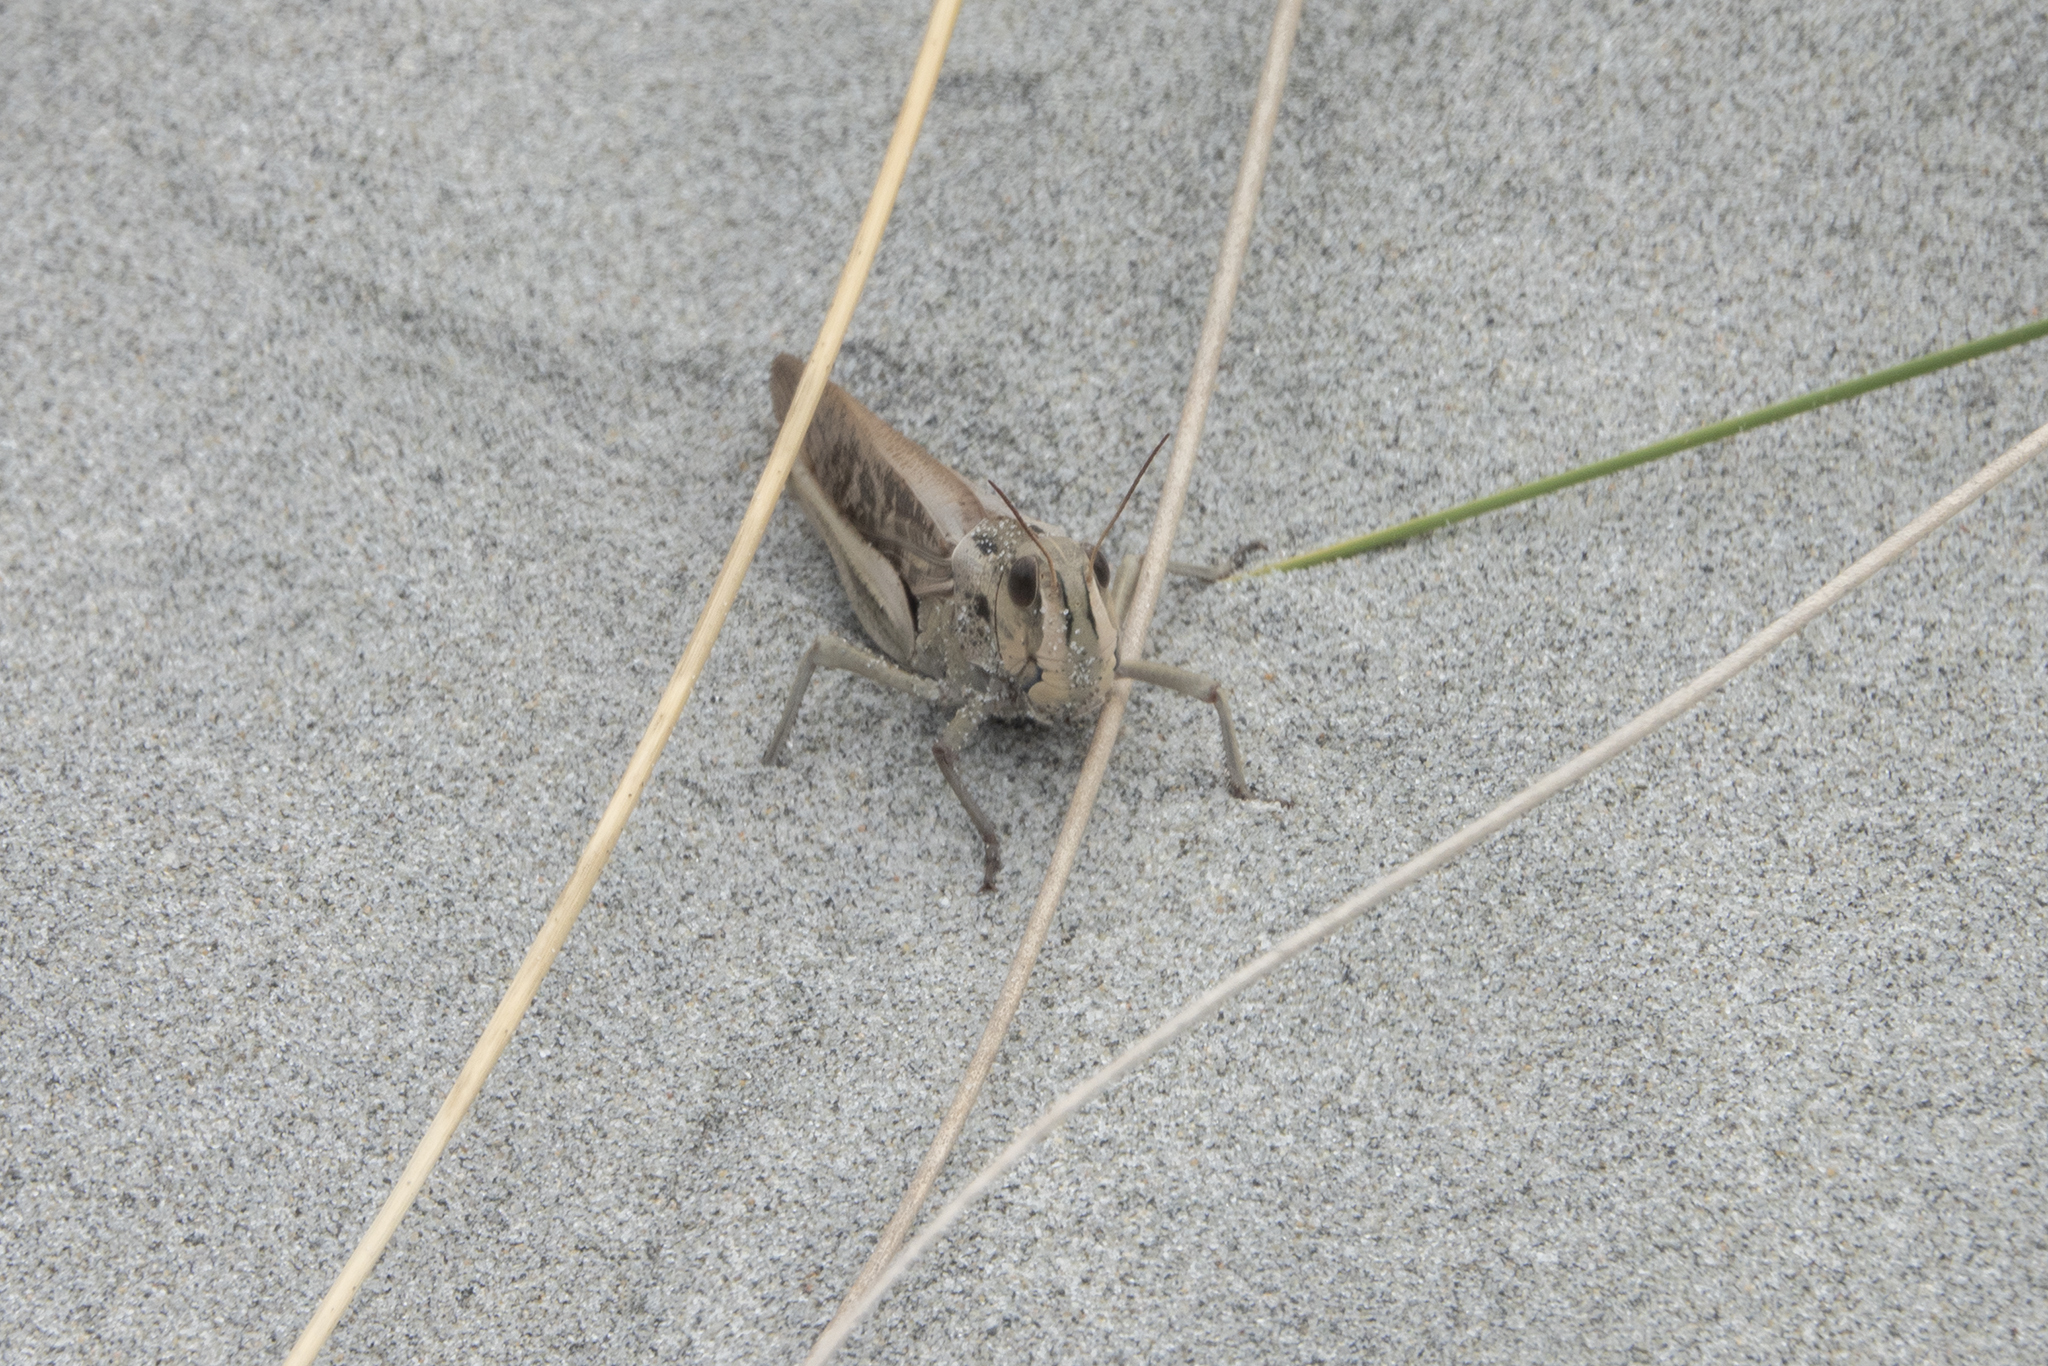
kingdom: Animalia
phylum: Arthropoda
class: Insecta
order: Orthoptera
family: Acrididae
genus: Locusta
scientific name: Locusta migratoria
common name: Migratory locust
